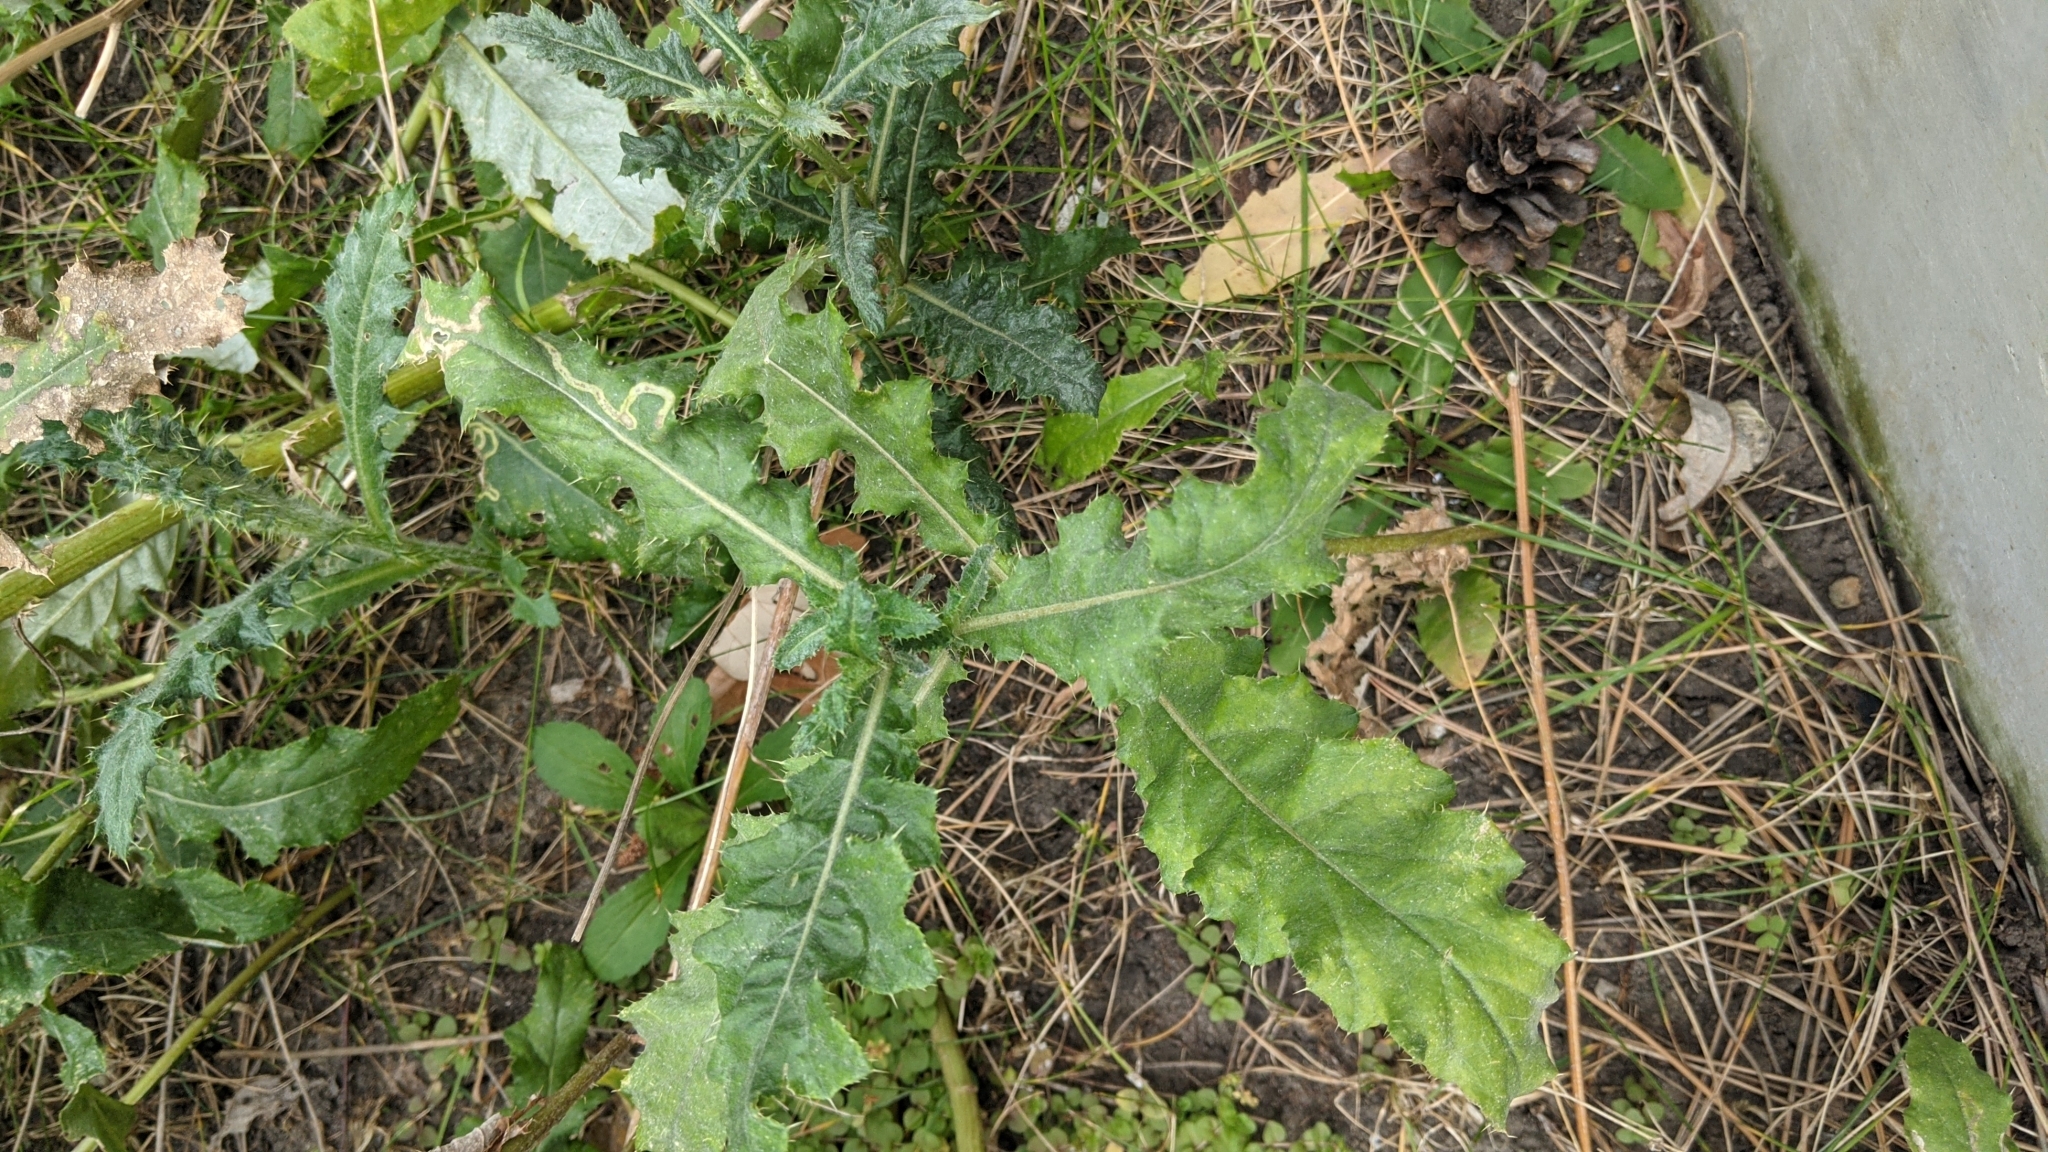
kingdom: Plantae
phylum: Tracheophyta
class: Magnoliopsida
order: Asterales
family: Asteraceae
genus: Cirsium
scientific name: Cirsium arvense
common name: Creeping thistle
